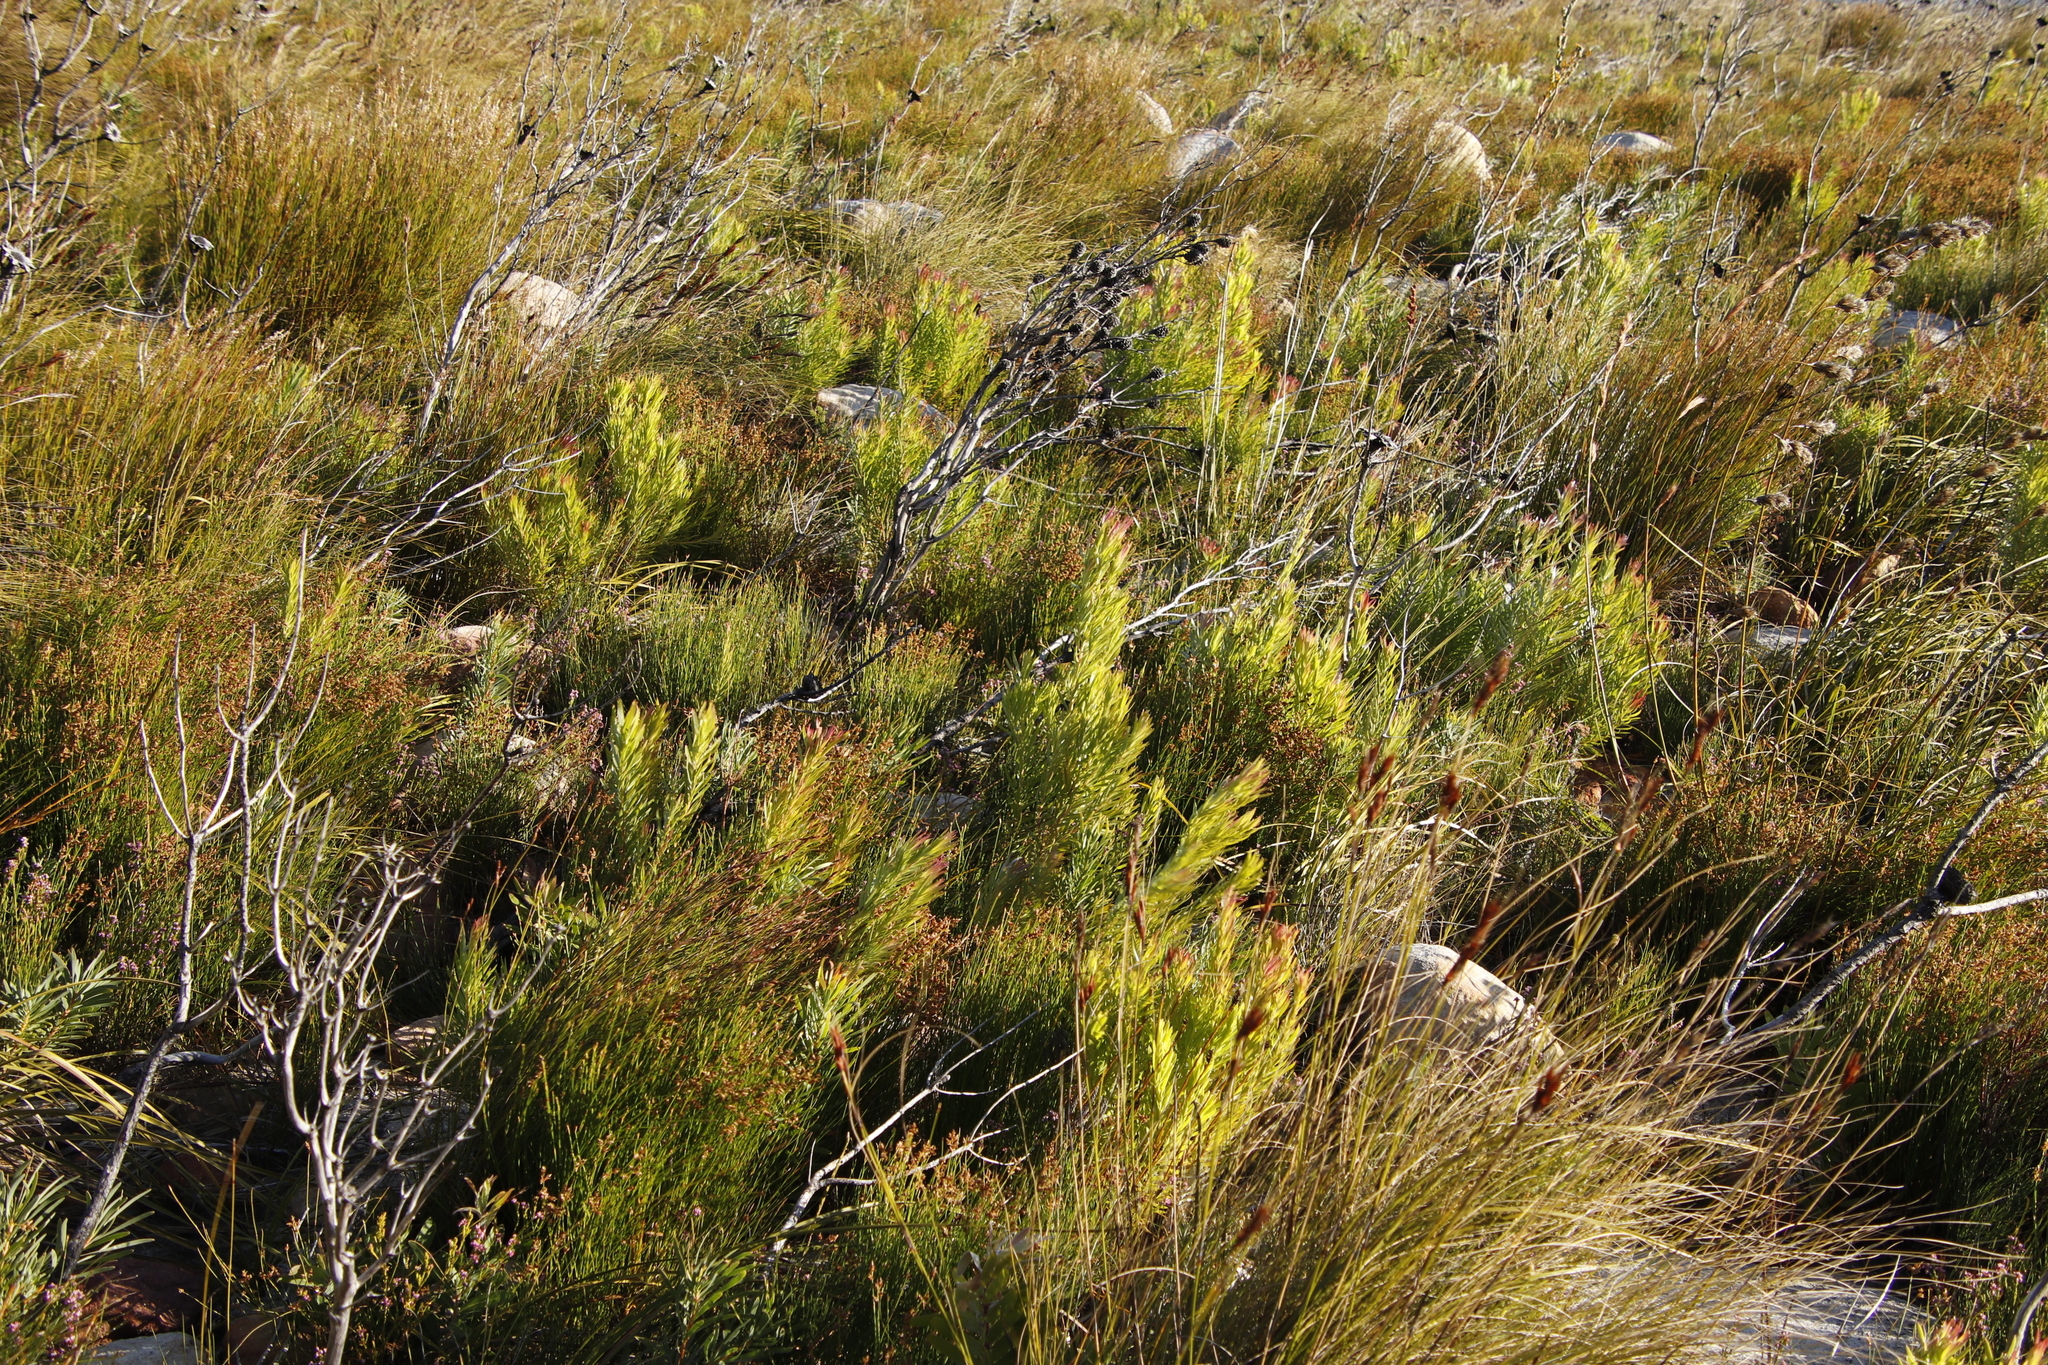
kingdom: Plantae
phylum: Tracheophyta
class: Magnoliopsida
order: Proteales
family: Proteaceae
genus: Leucadendron
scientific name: Leucadendron xanthoconus
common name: Sickle-leaf conebush
